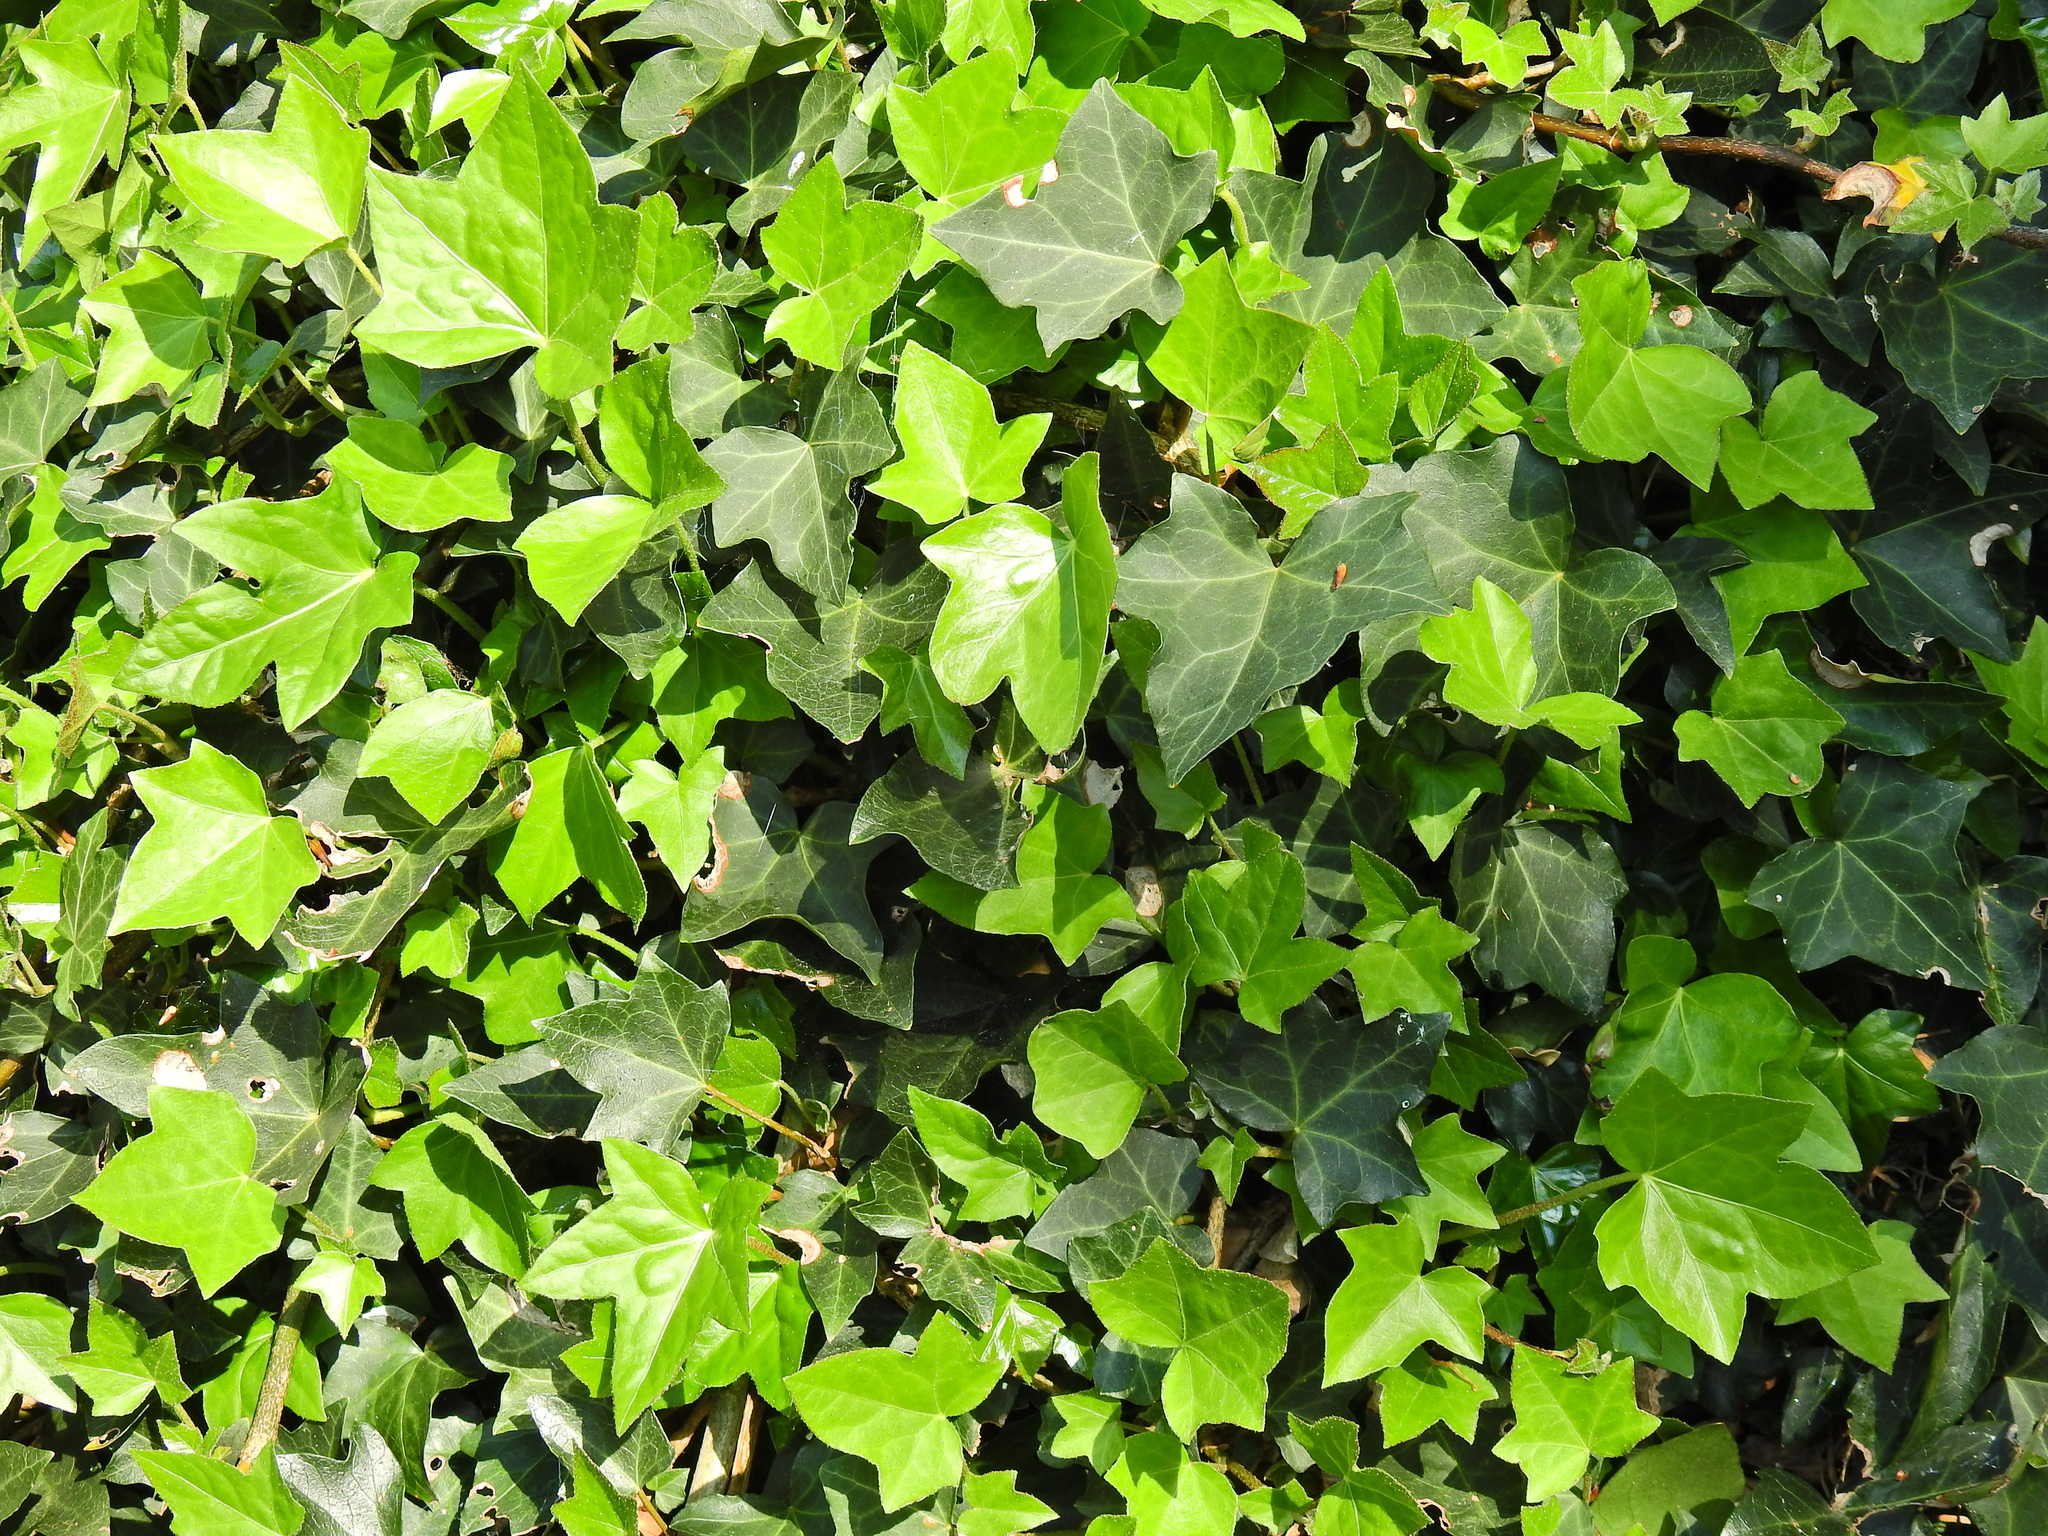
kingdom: Plantae
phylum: Tracheophyta
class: Magnoliopsida
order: Apiales
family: Araliaceae
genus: Hedera
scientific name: Hedera helix
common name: Ivy
